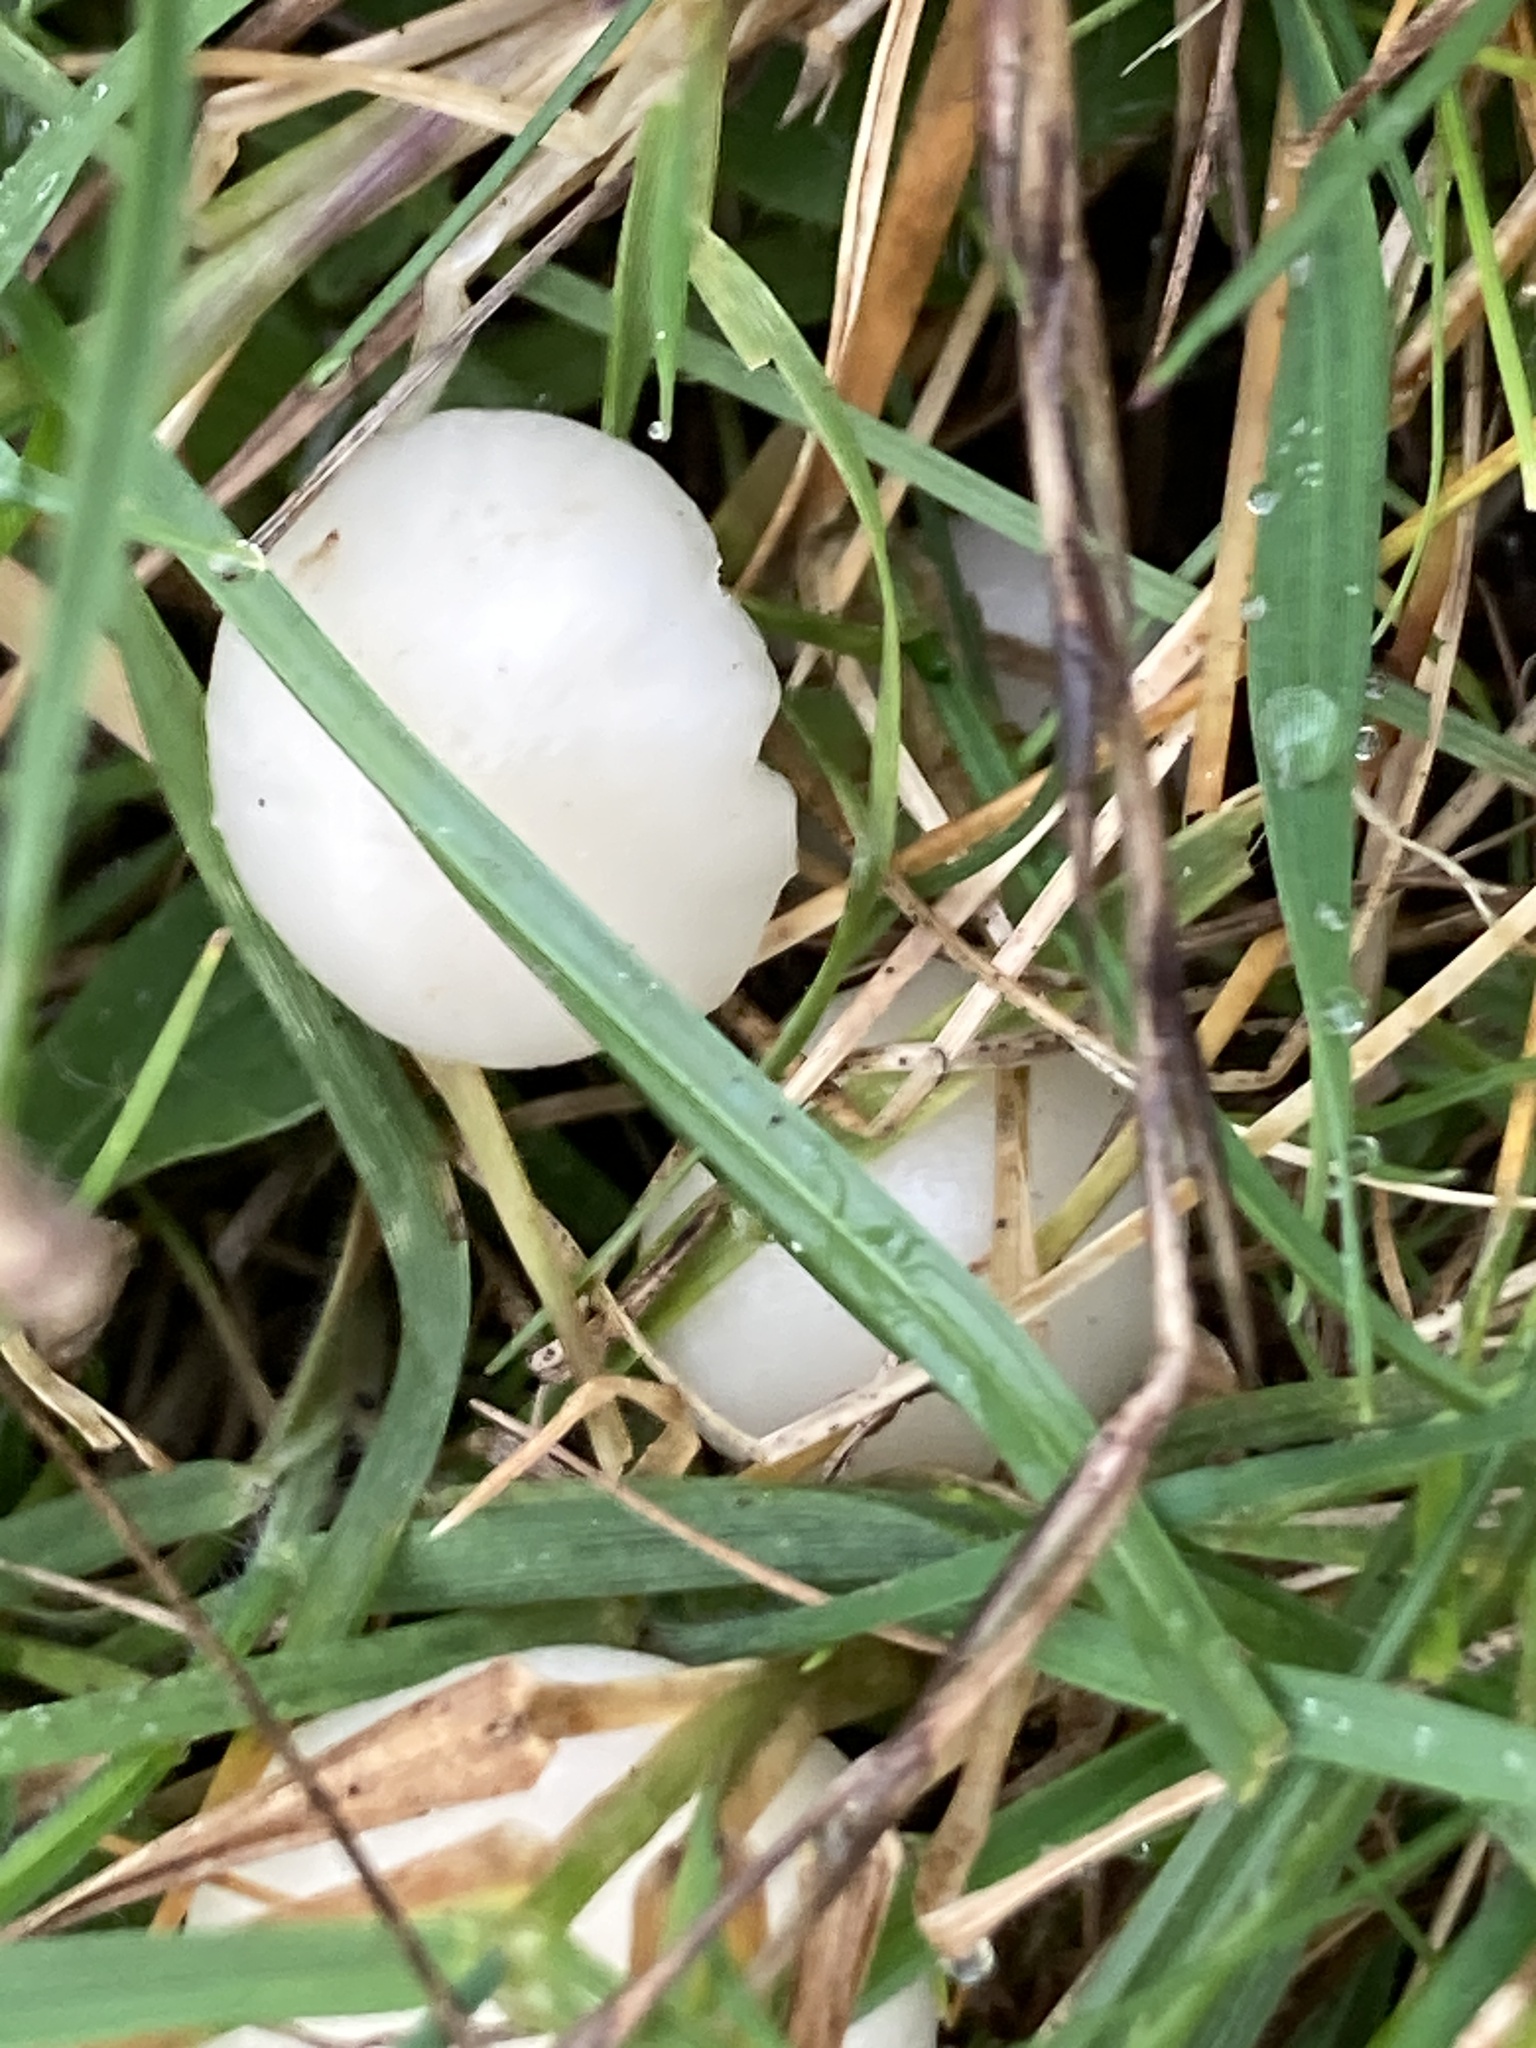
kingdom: Fungi
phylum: Basidiomycota
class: Agaricomycetes
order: Agaricales
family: Hygrophoraceae
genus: Cuphophyllus
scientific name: Cuphophyllus virgineus
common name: Snowy waxcap
